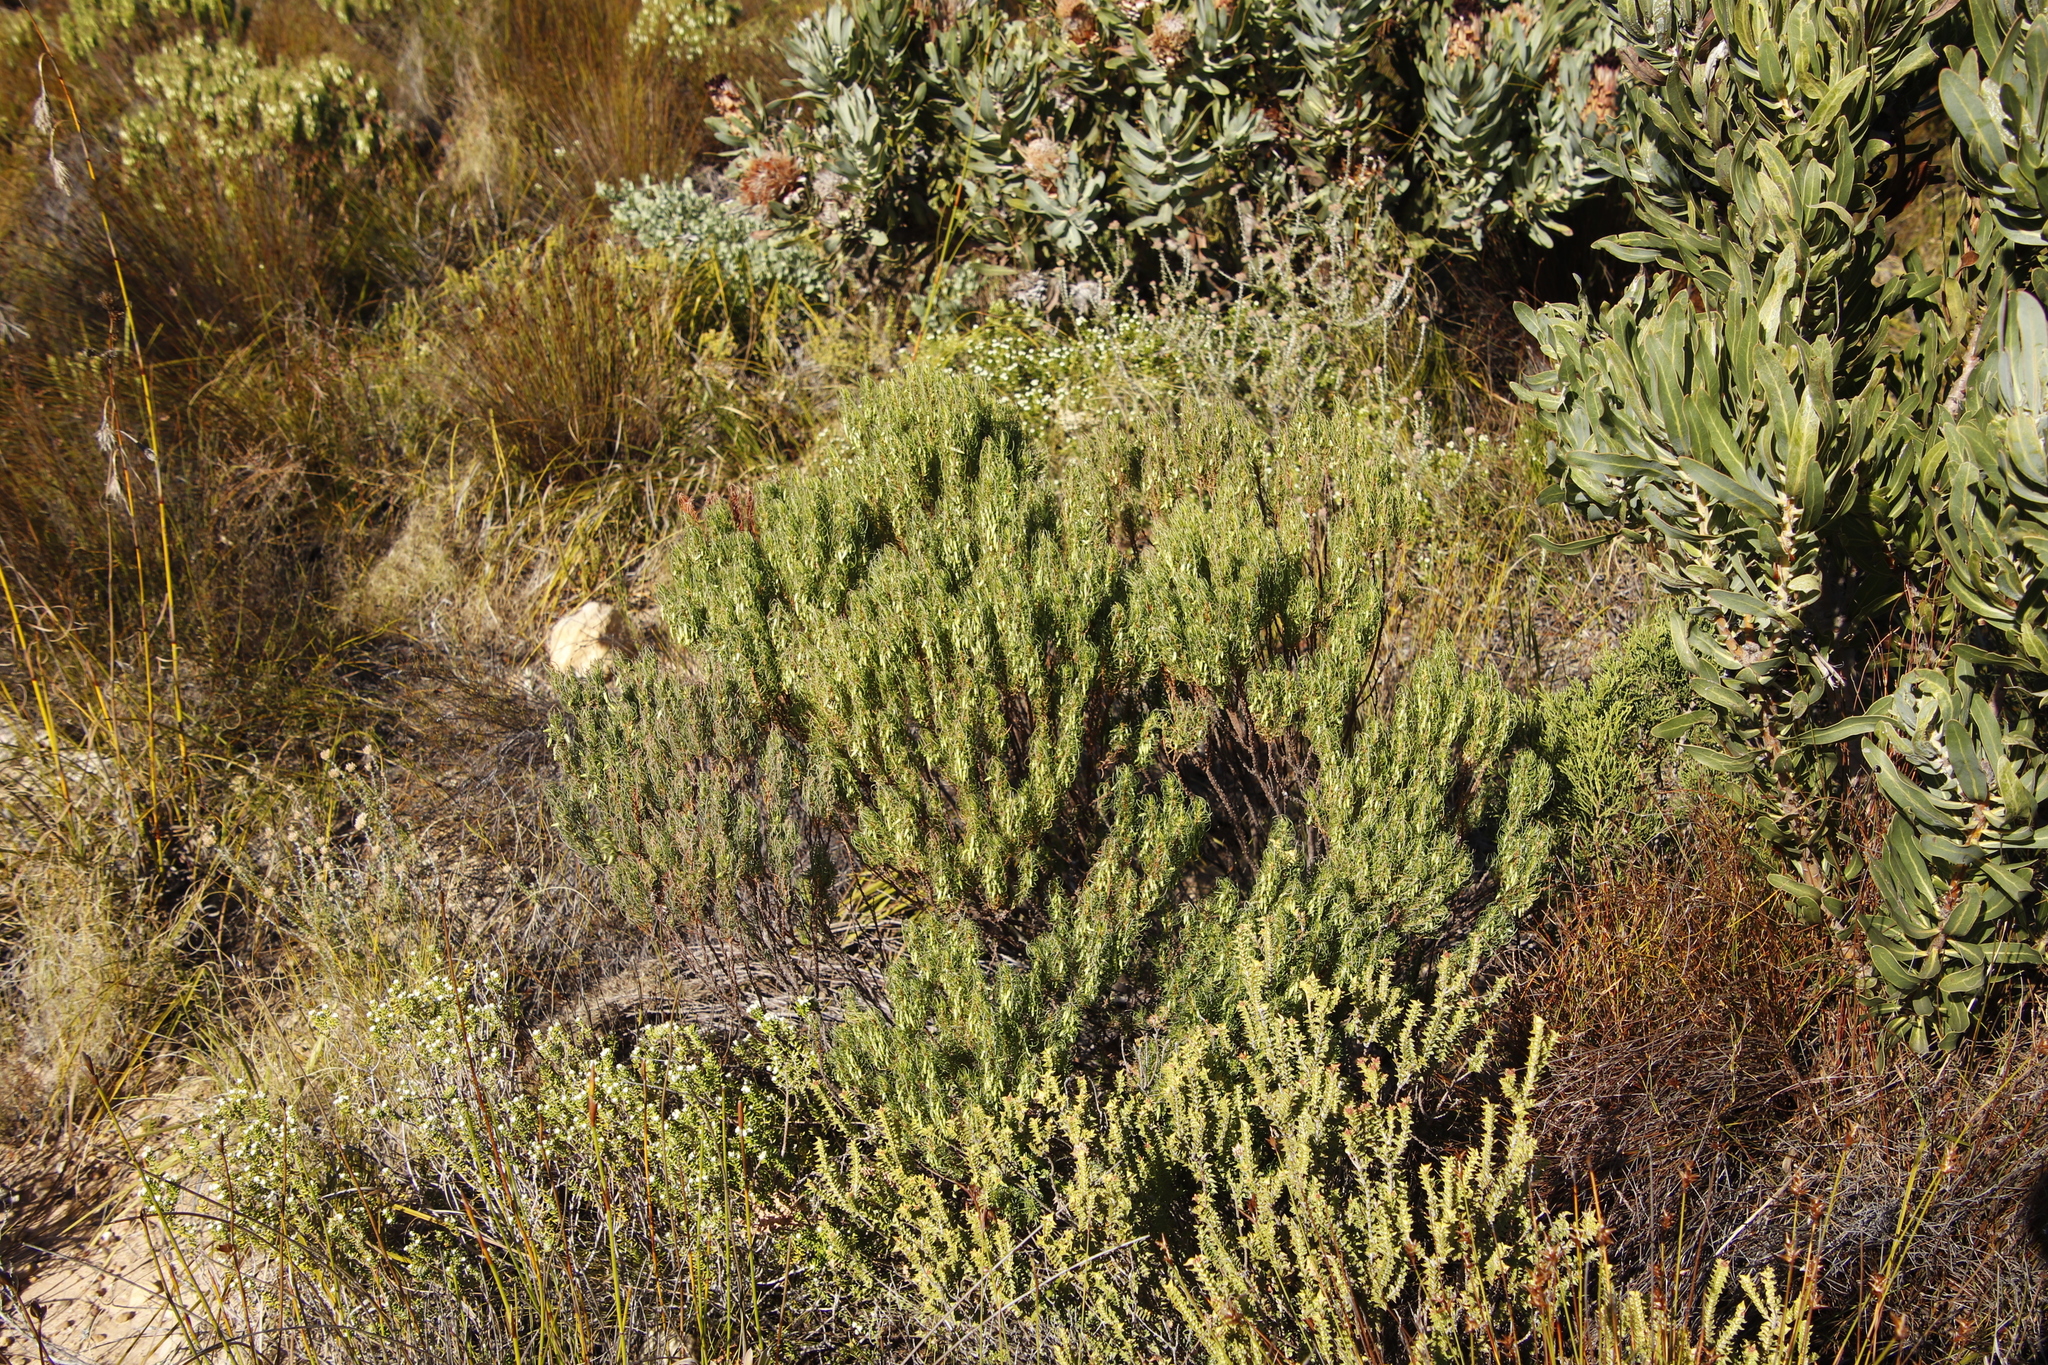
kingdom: Plantae
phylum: Tracheophyta
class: Magnoliopsida
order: Ericales
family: Ericaceae
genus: Erica
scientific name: Erica plukenetii
